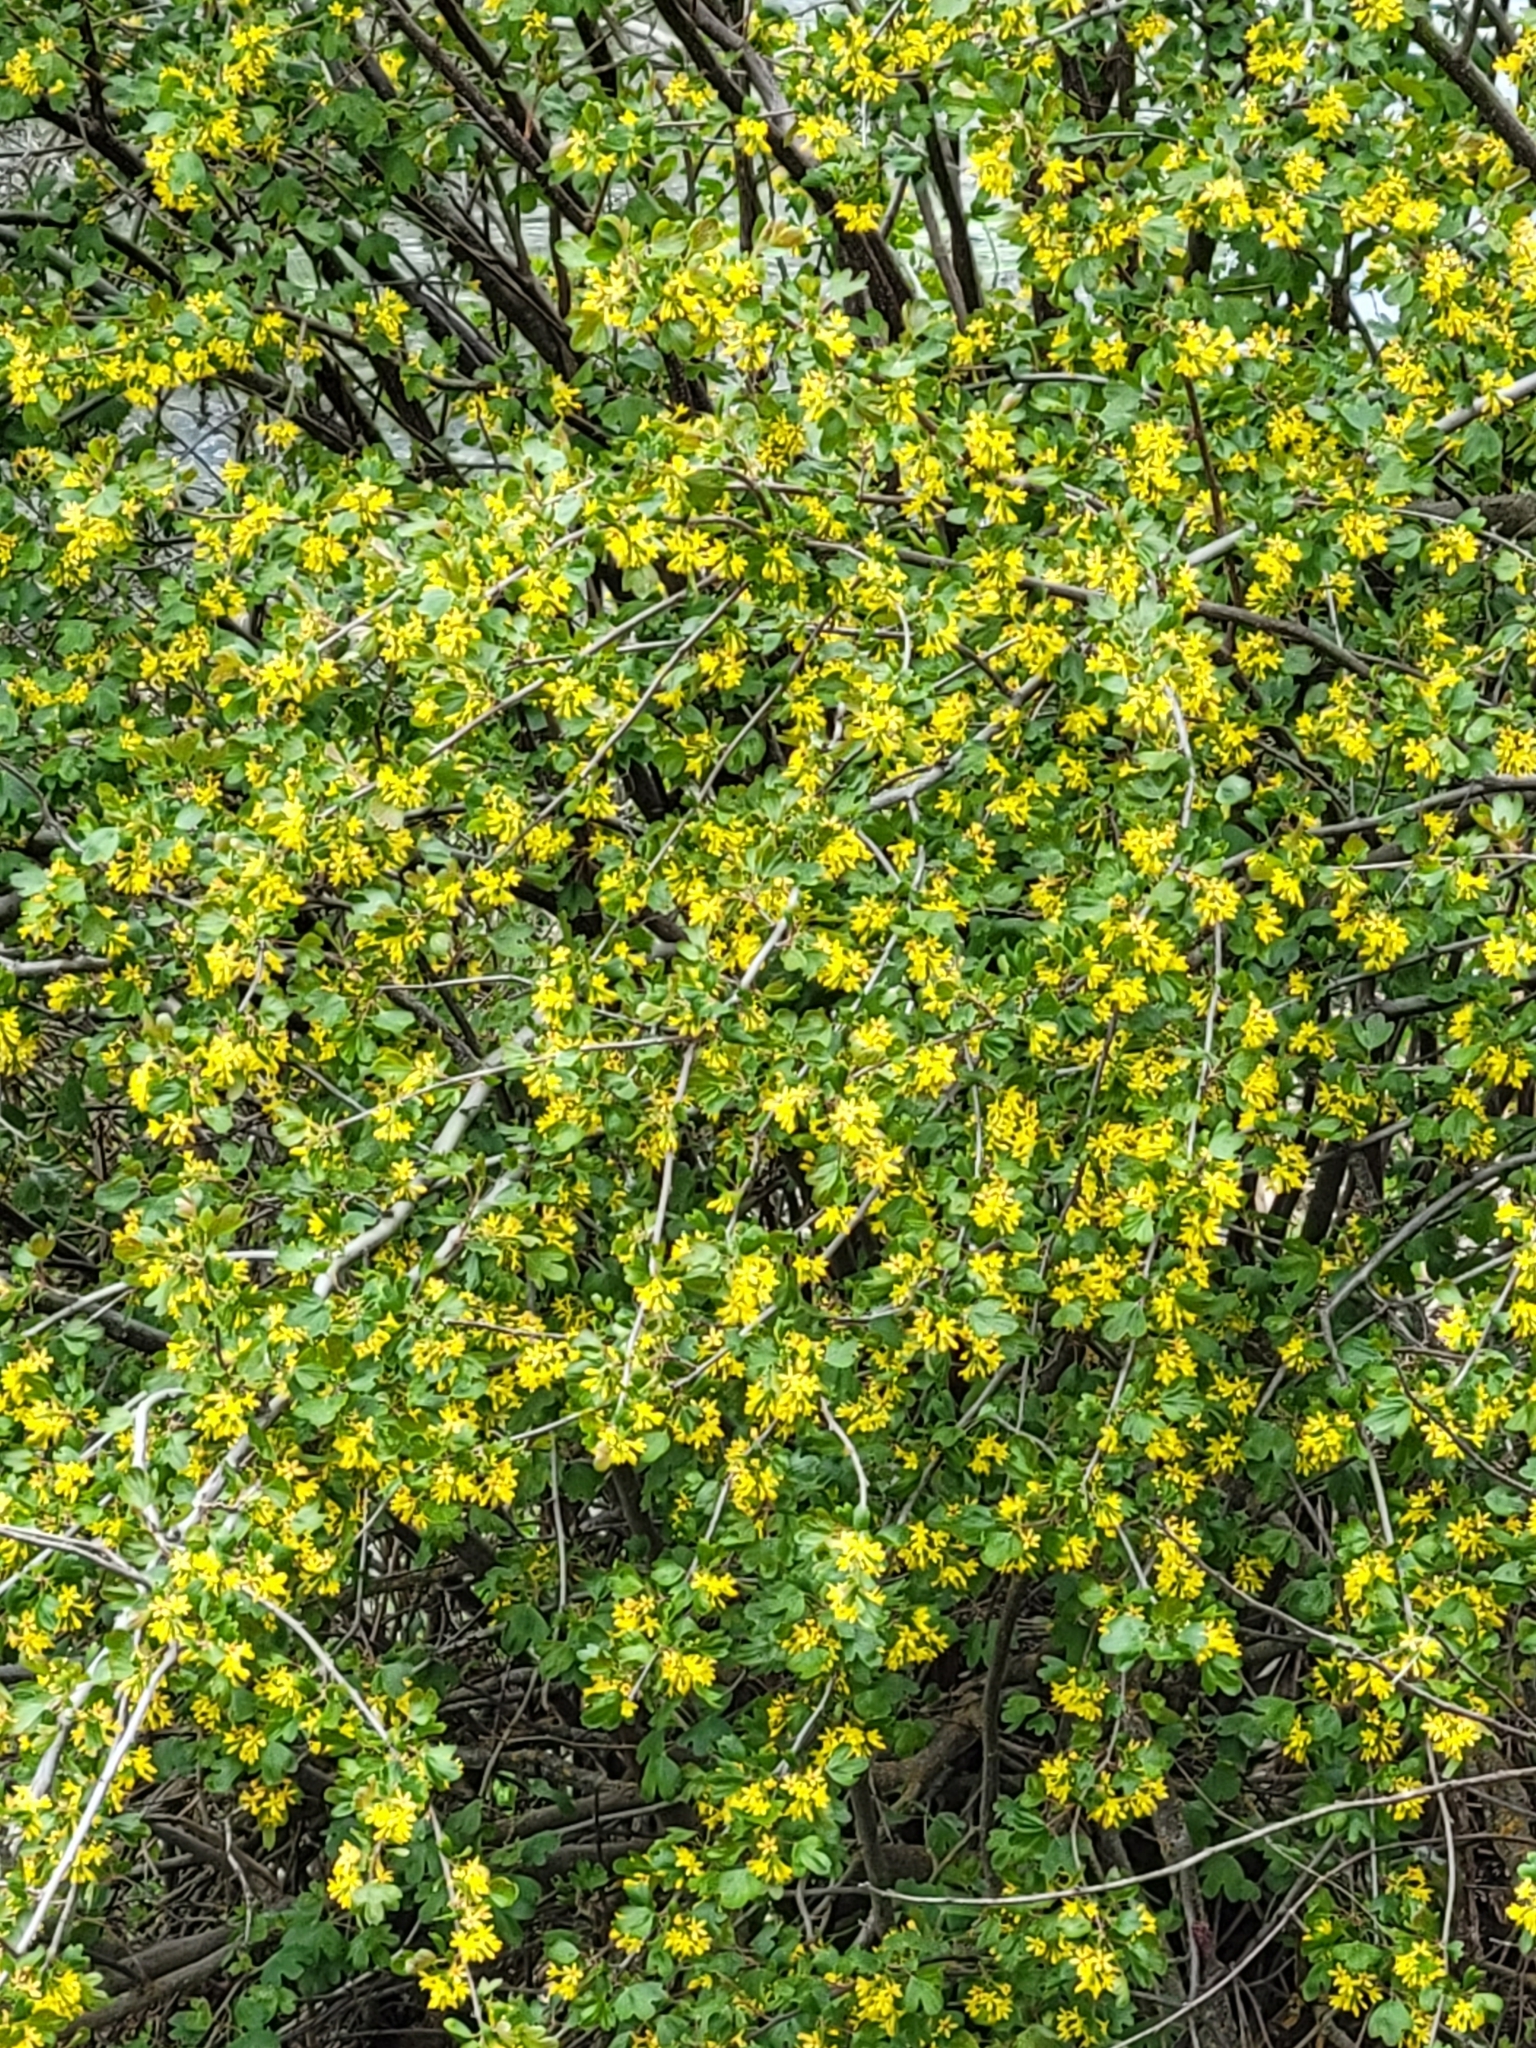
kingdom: Plantae
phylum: Tracheophyta
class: Magnoliopsida
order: Saxifragales
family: Grossulariaceae
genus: Ribes
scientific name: Ribes aureum
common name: Golden currant
